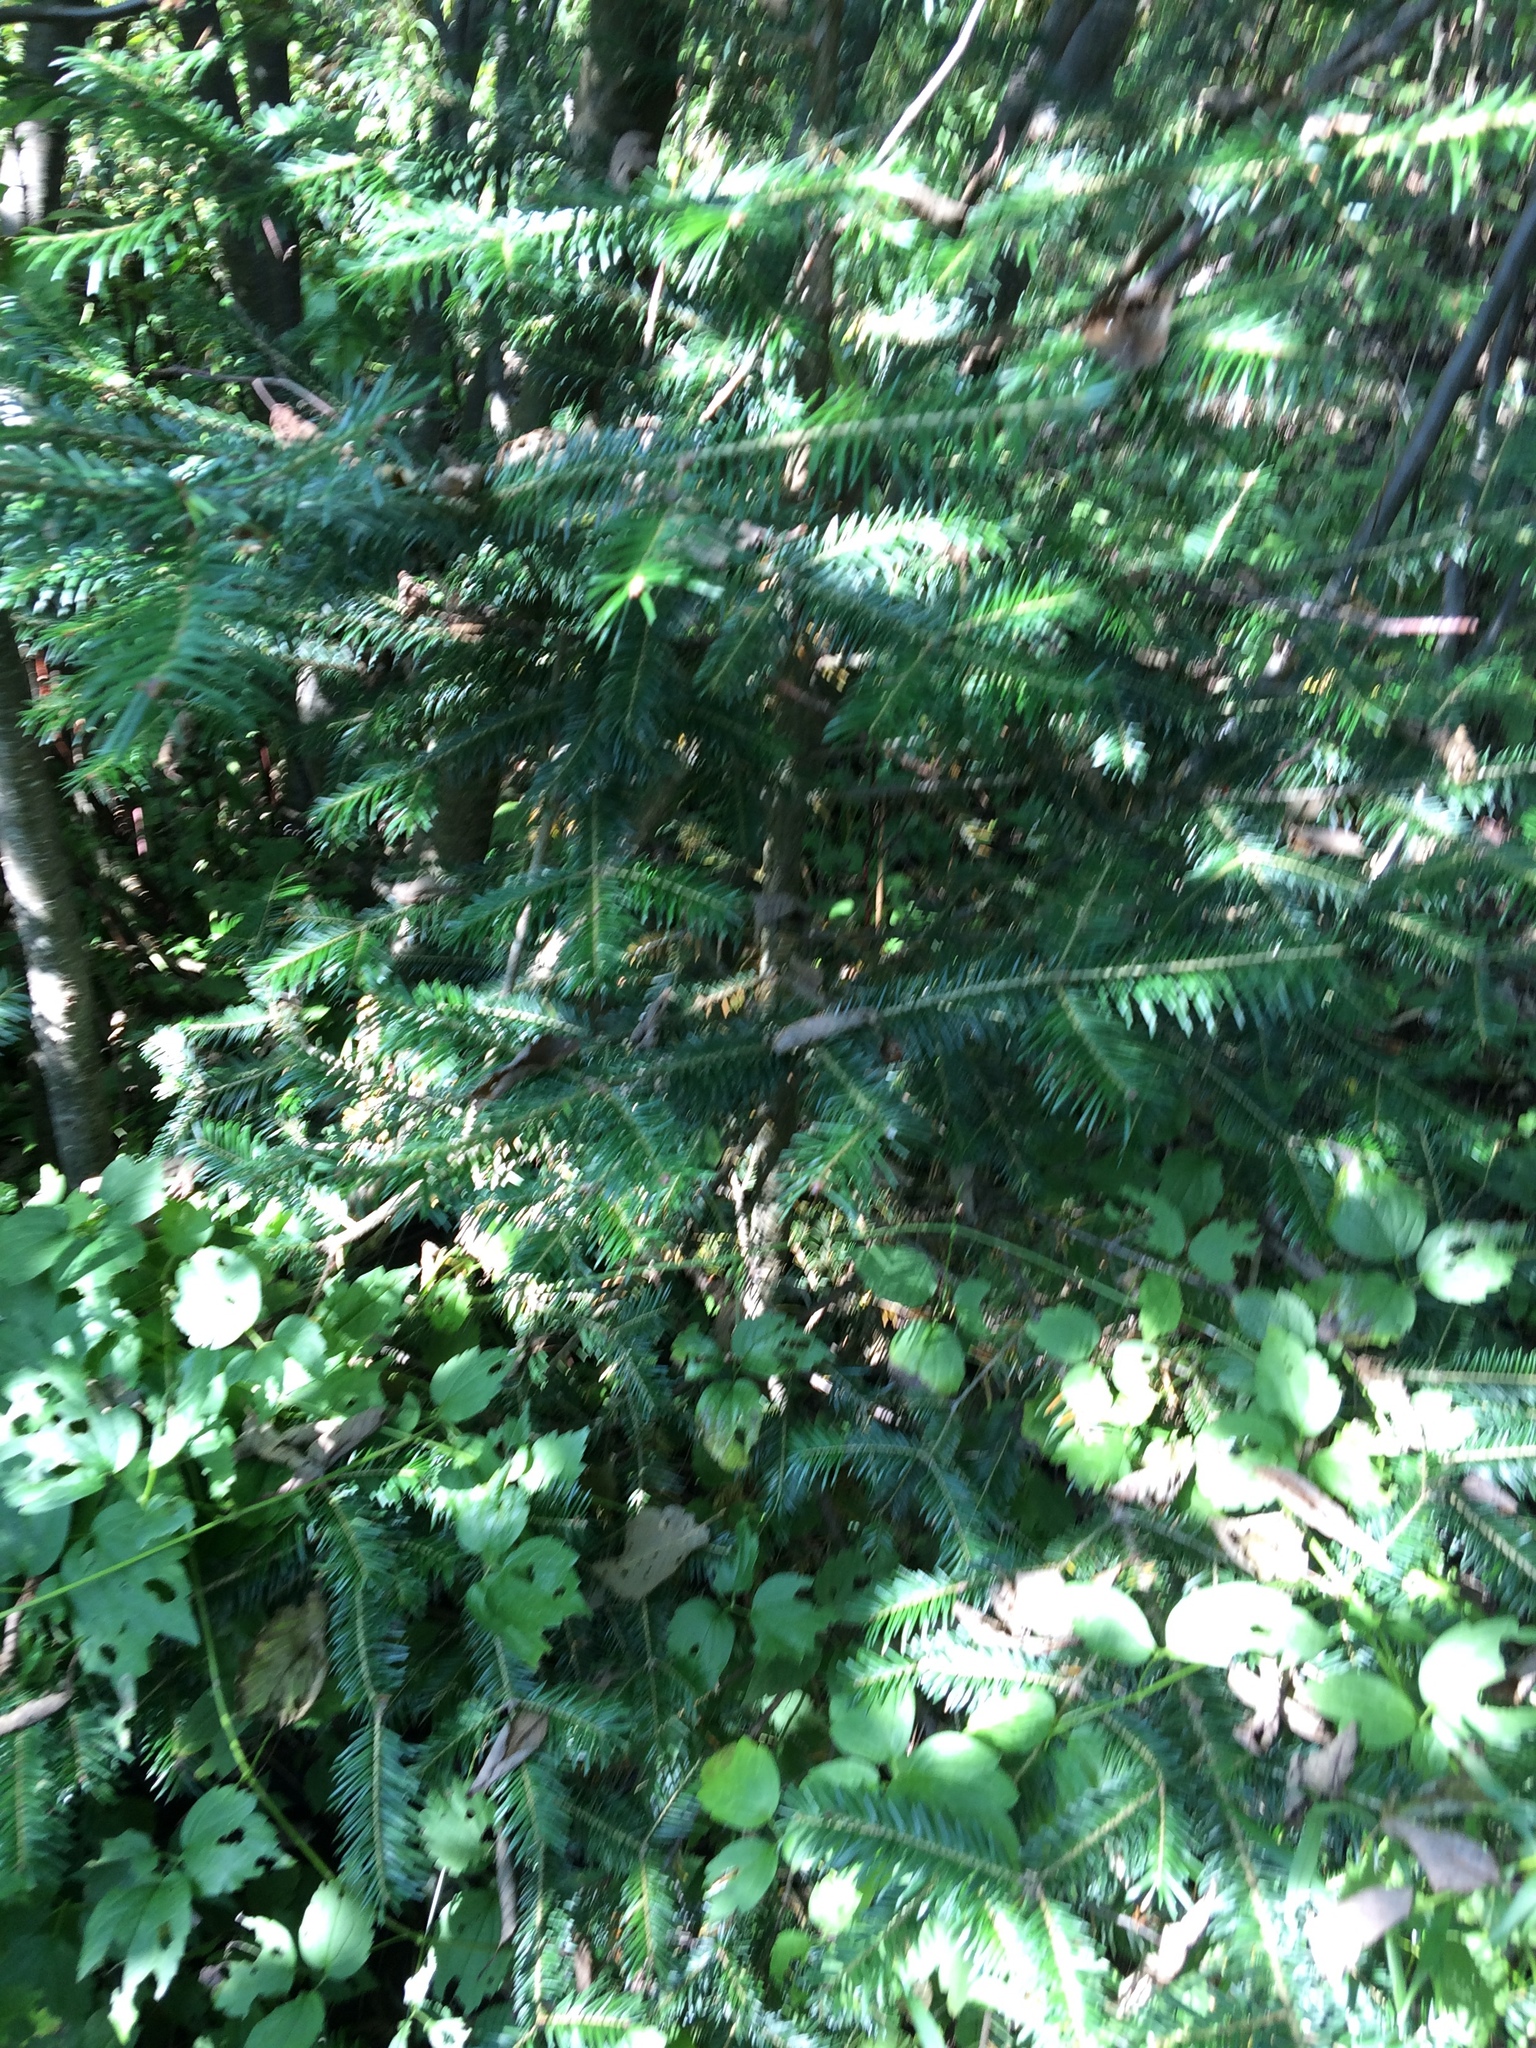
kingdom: Plantae
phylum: Tracheophyta
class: Pinopsida
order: Pinales
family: Pinaceae
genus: Abies
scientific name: Abies balsamea
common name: Balsam fir
